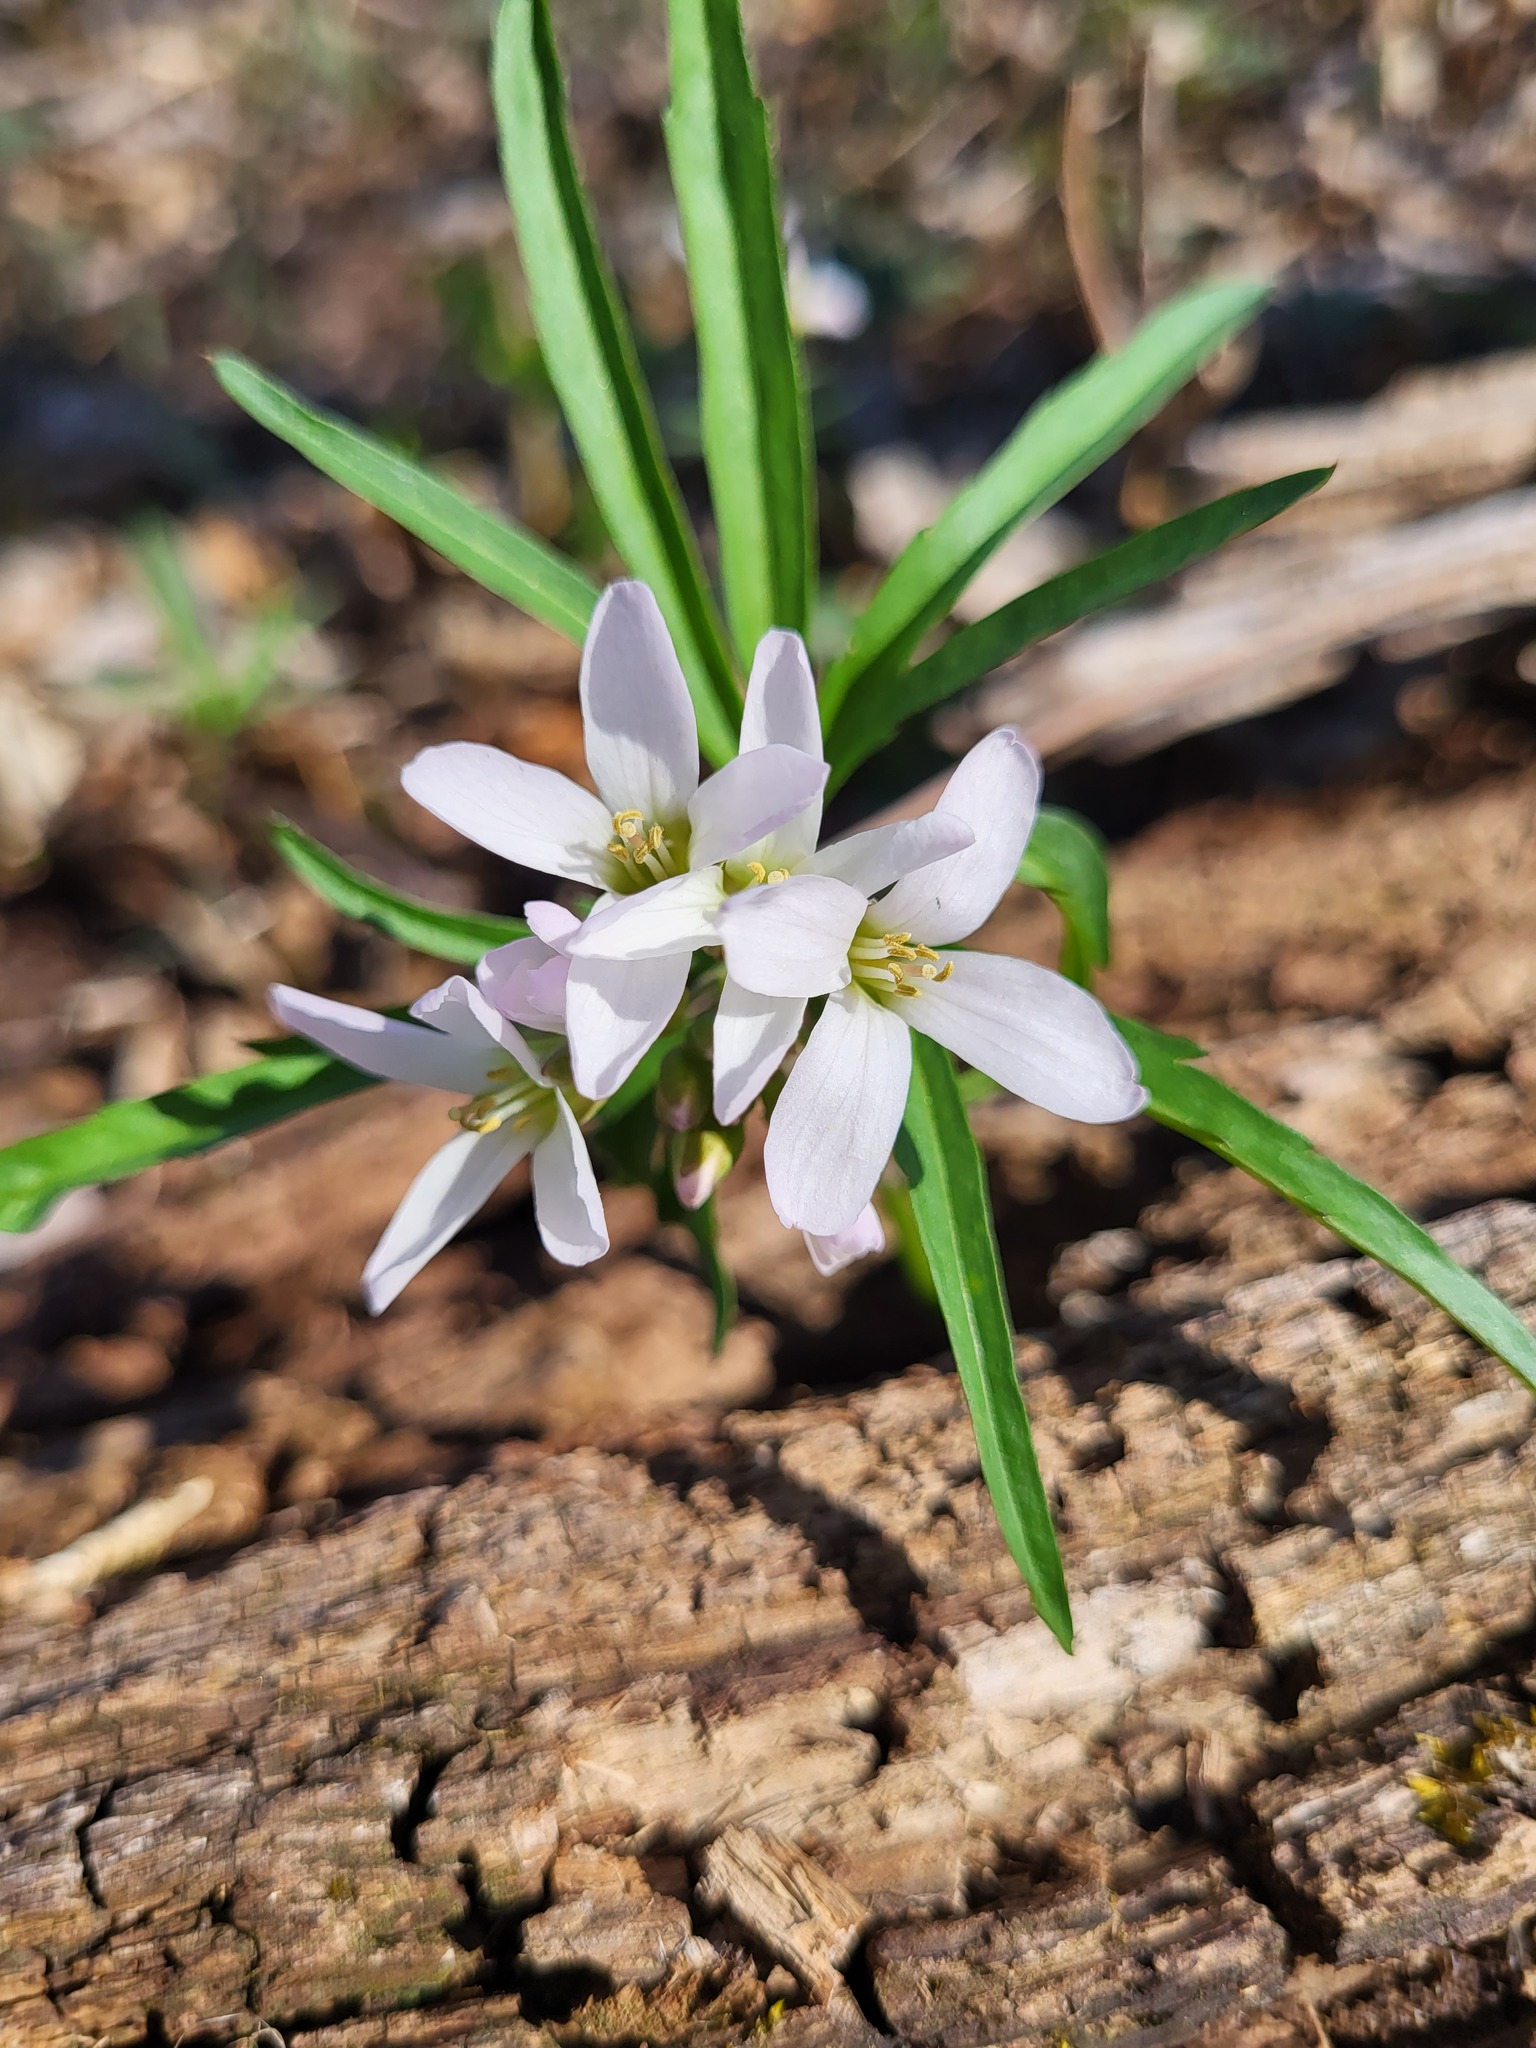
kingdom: Plantae
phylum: Tracheophyta
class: Magnoliopsida
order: Brassicales
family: Brassicaceae
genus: Cardamine
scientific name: Cardamine concatenata
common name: Cut-leaf toothcup
